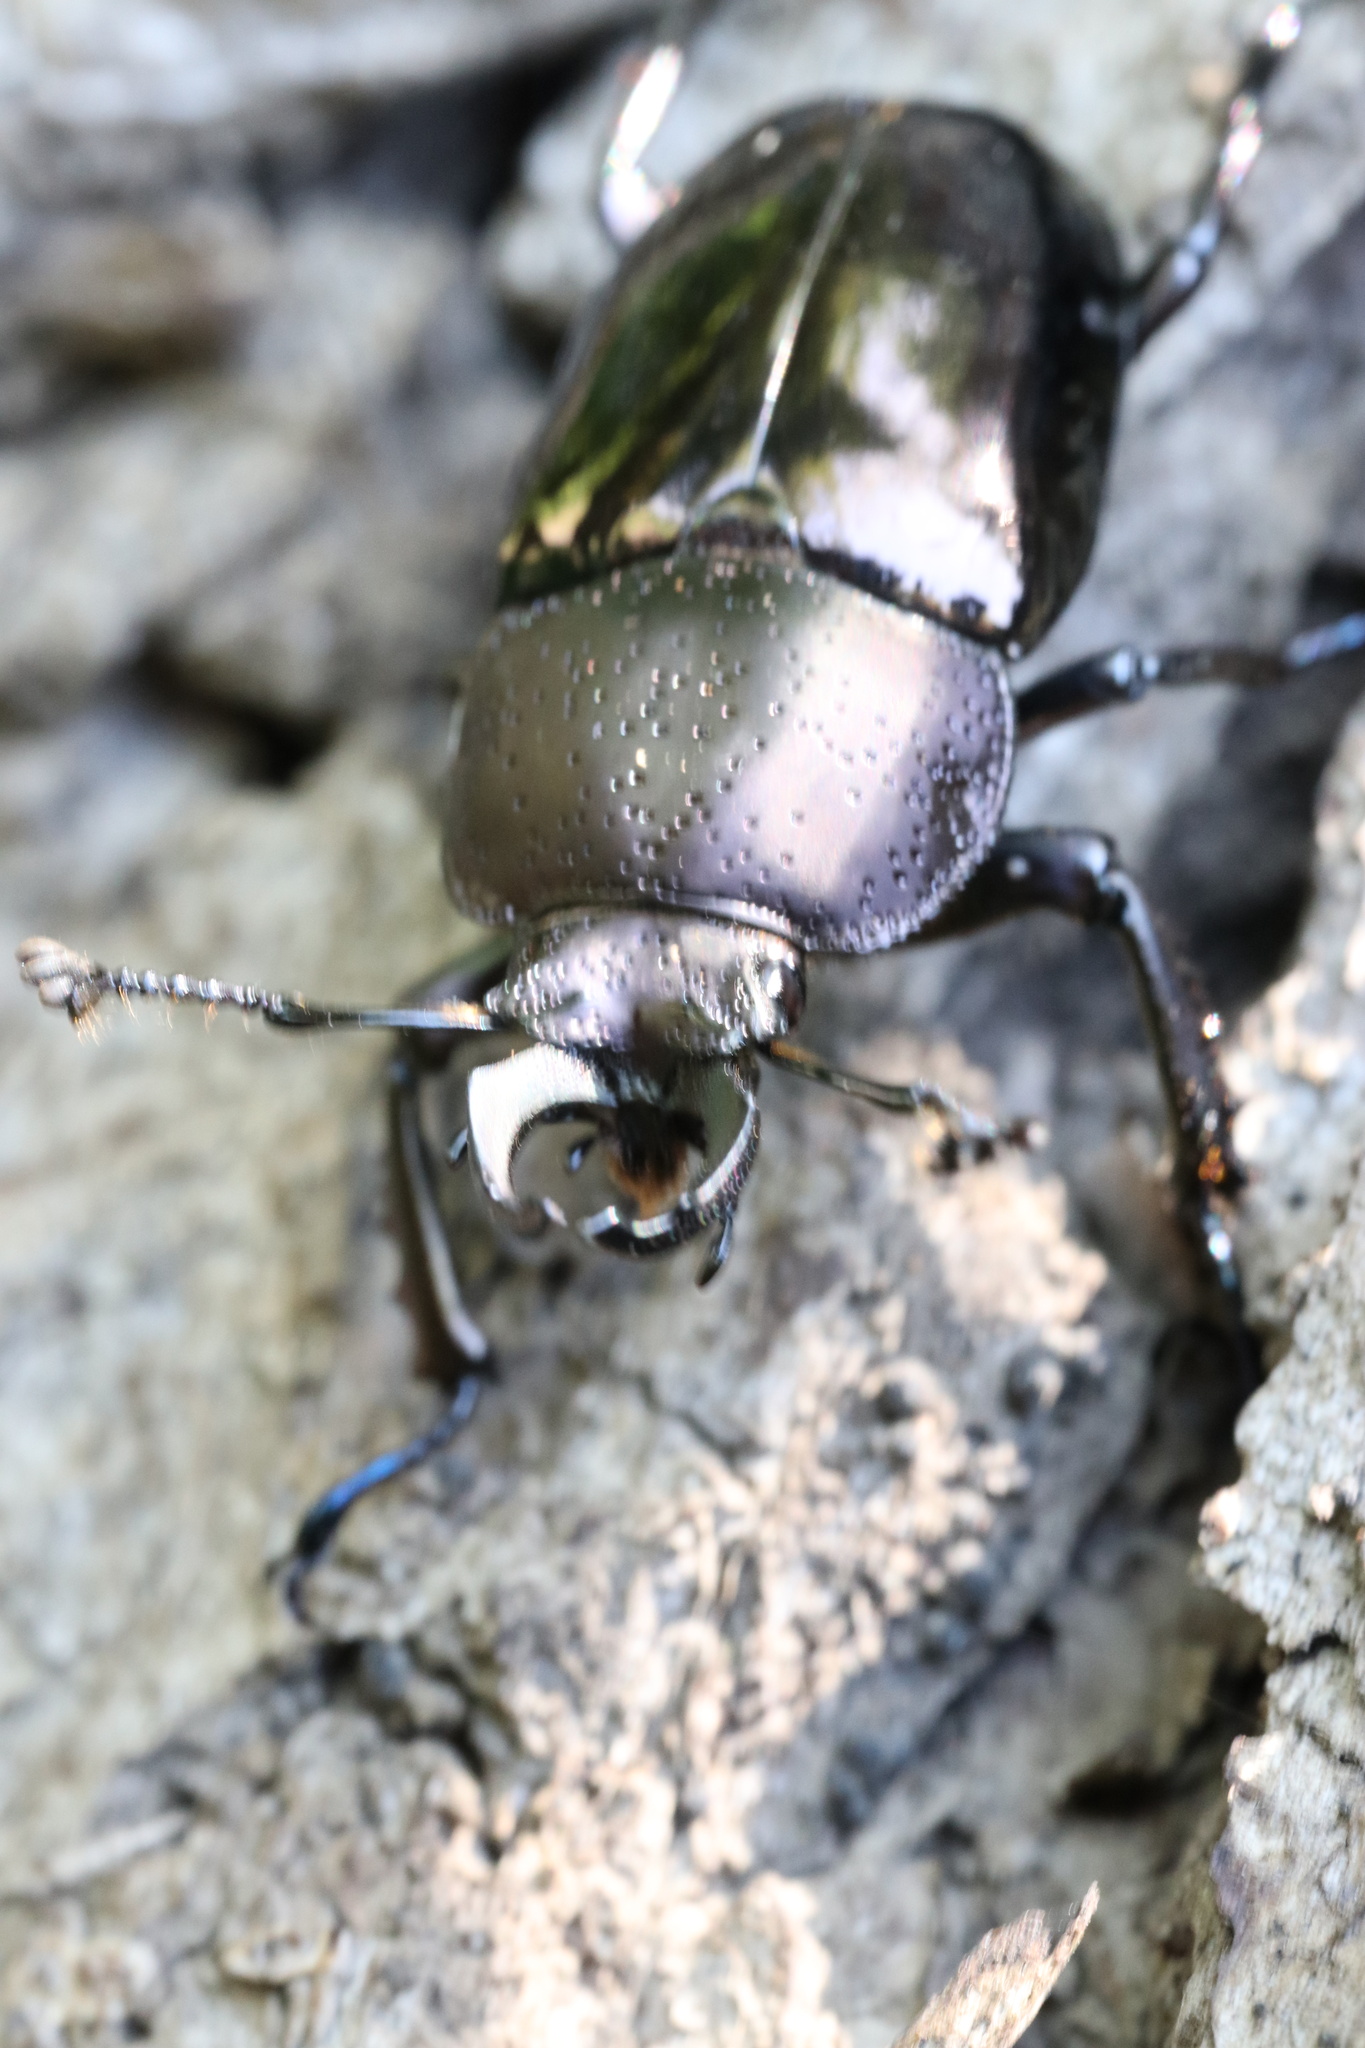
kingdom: Animalia
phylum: Arthropoda
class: Insecta
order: Coleoptera
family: Lucanidae
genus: Streptocerus
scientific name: Streptocerus speciosus
